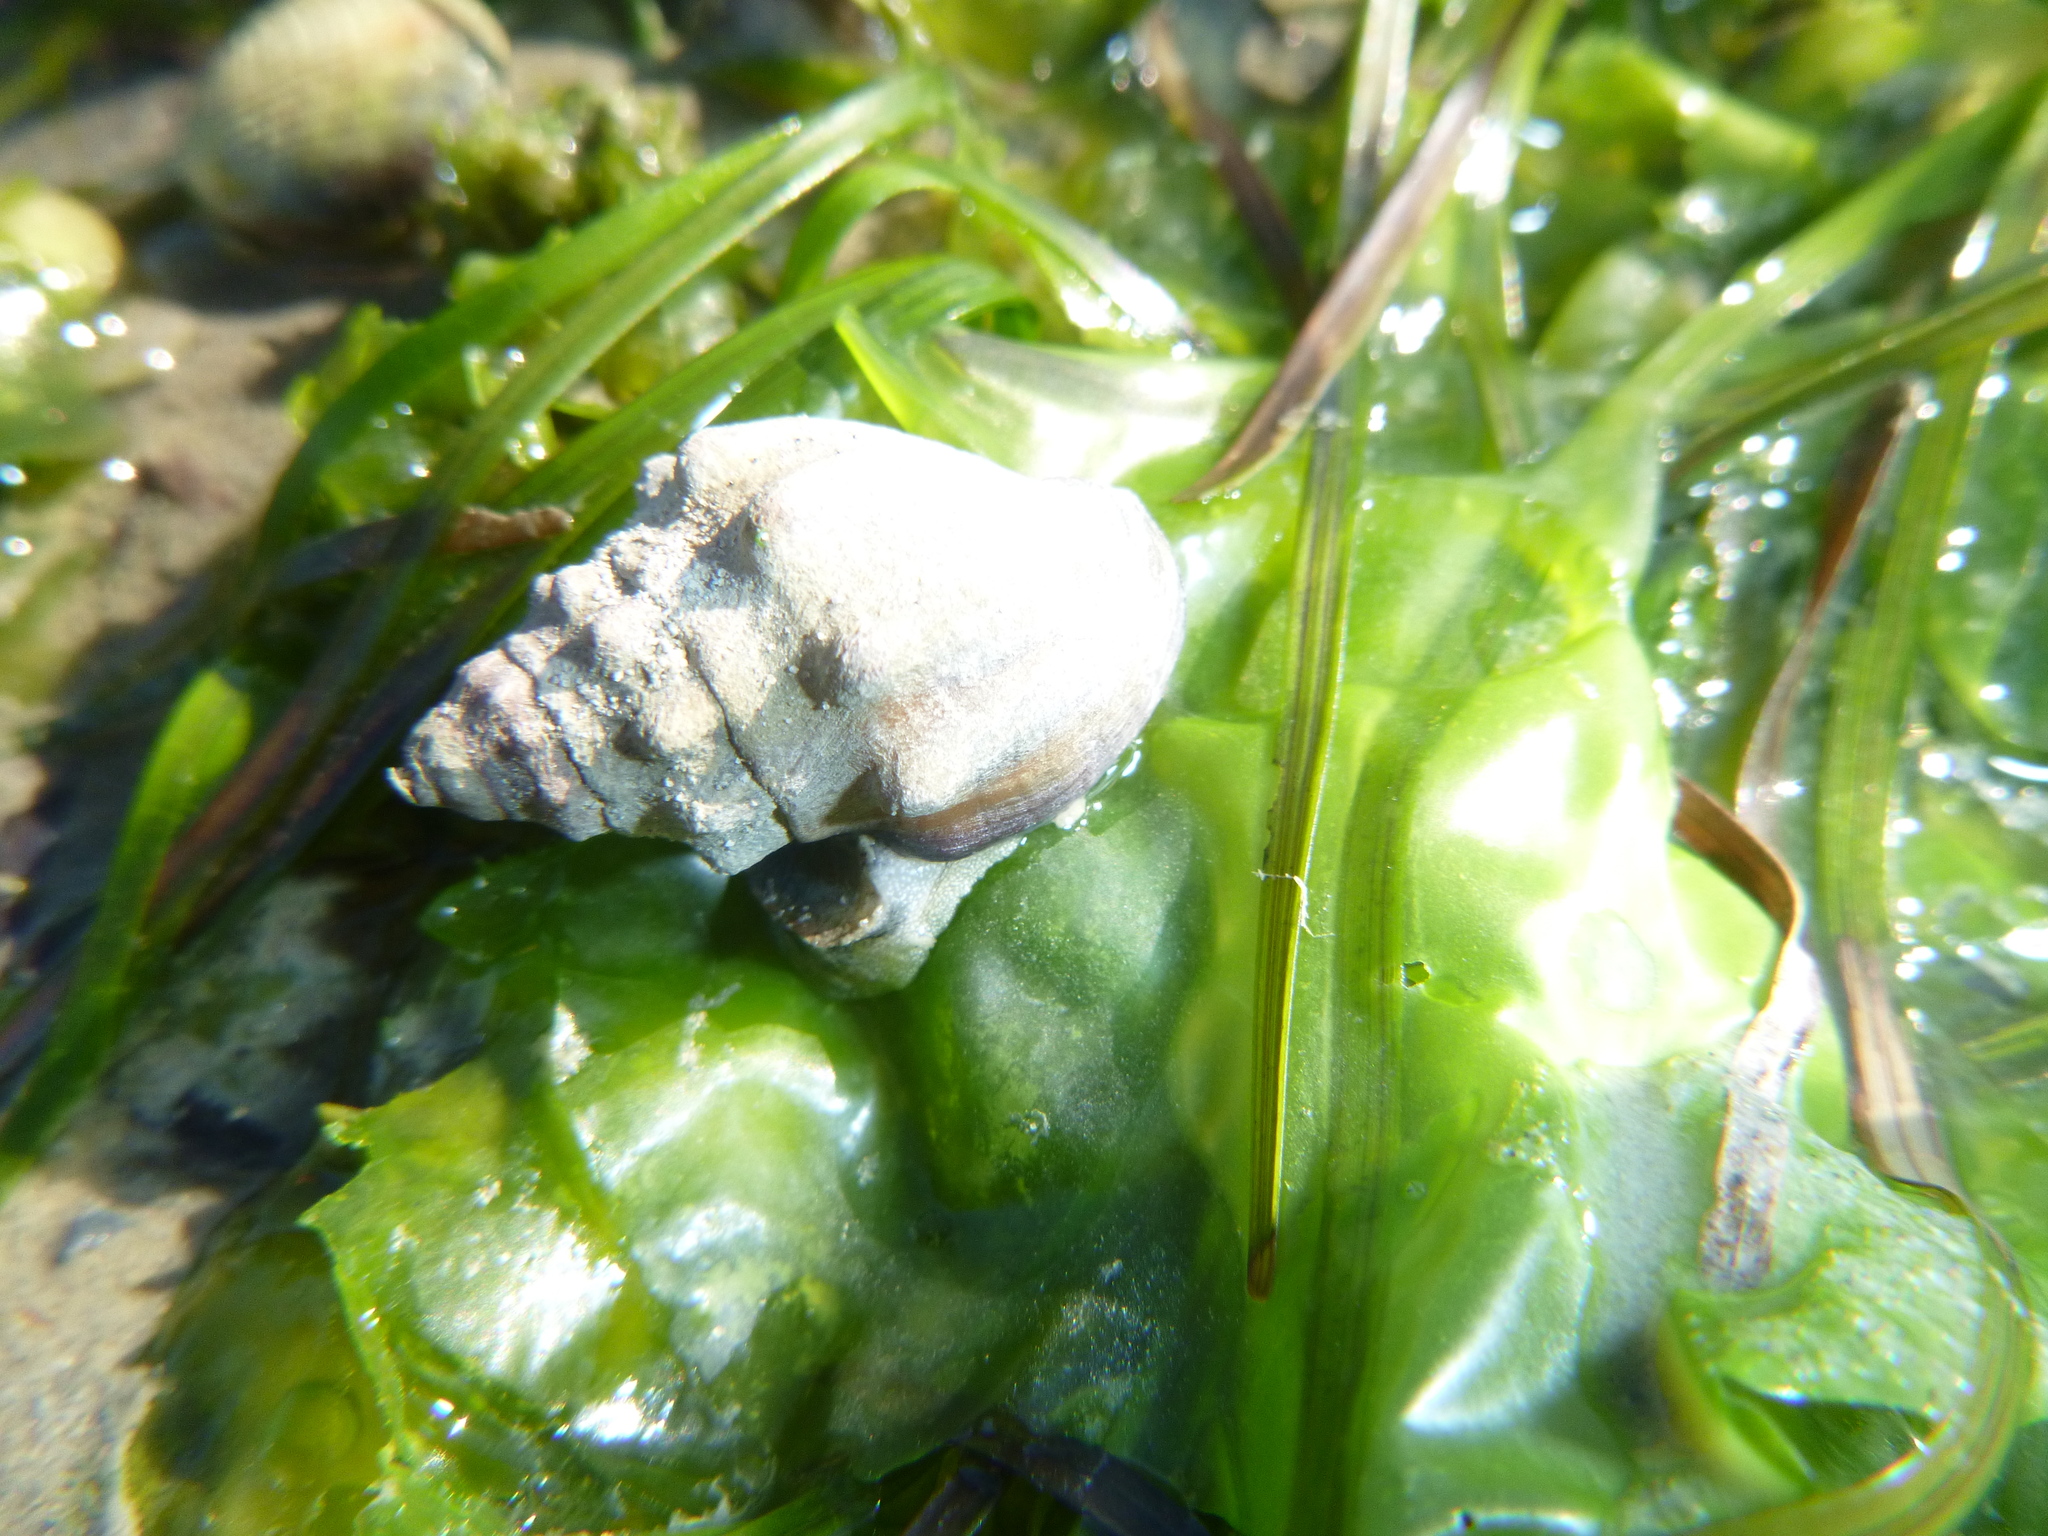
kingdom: Animalia
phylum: Mollusca
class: Gastropoda
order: Neogastropoda
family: Cominellidae
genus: Cominella
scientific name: Cominella glandiformis
